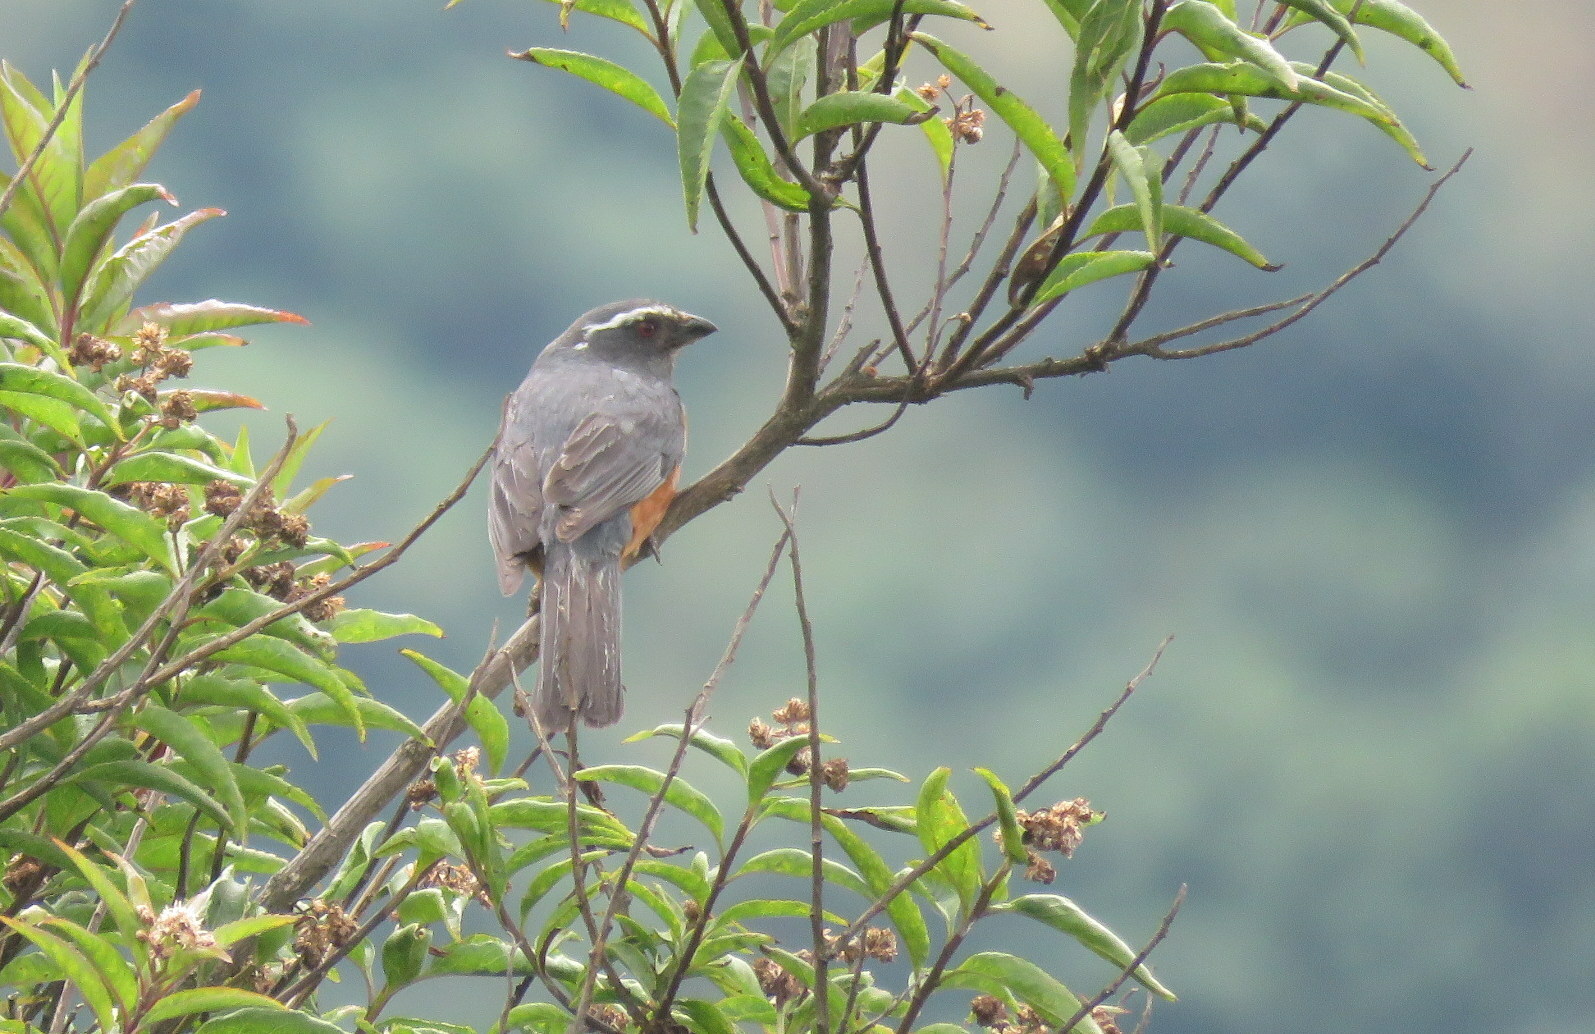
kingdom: Animalia
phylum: Chordata
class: Aves
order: Passeriformes
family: Thraupidae
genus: Pseudosaltator
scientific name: Pseudosaltator rufiventris
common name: Rufous-bellied mountain-tanager
